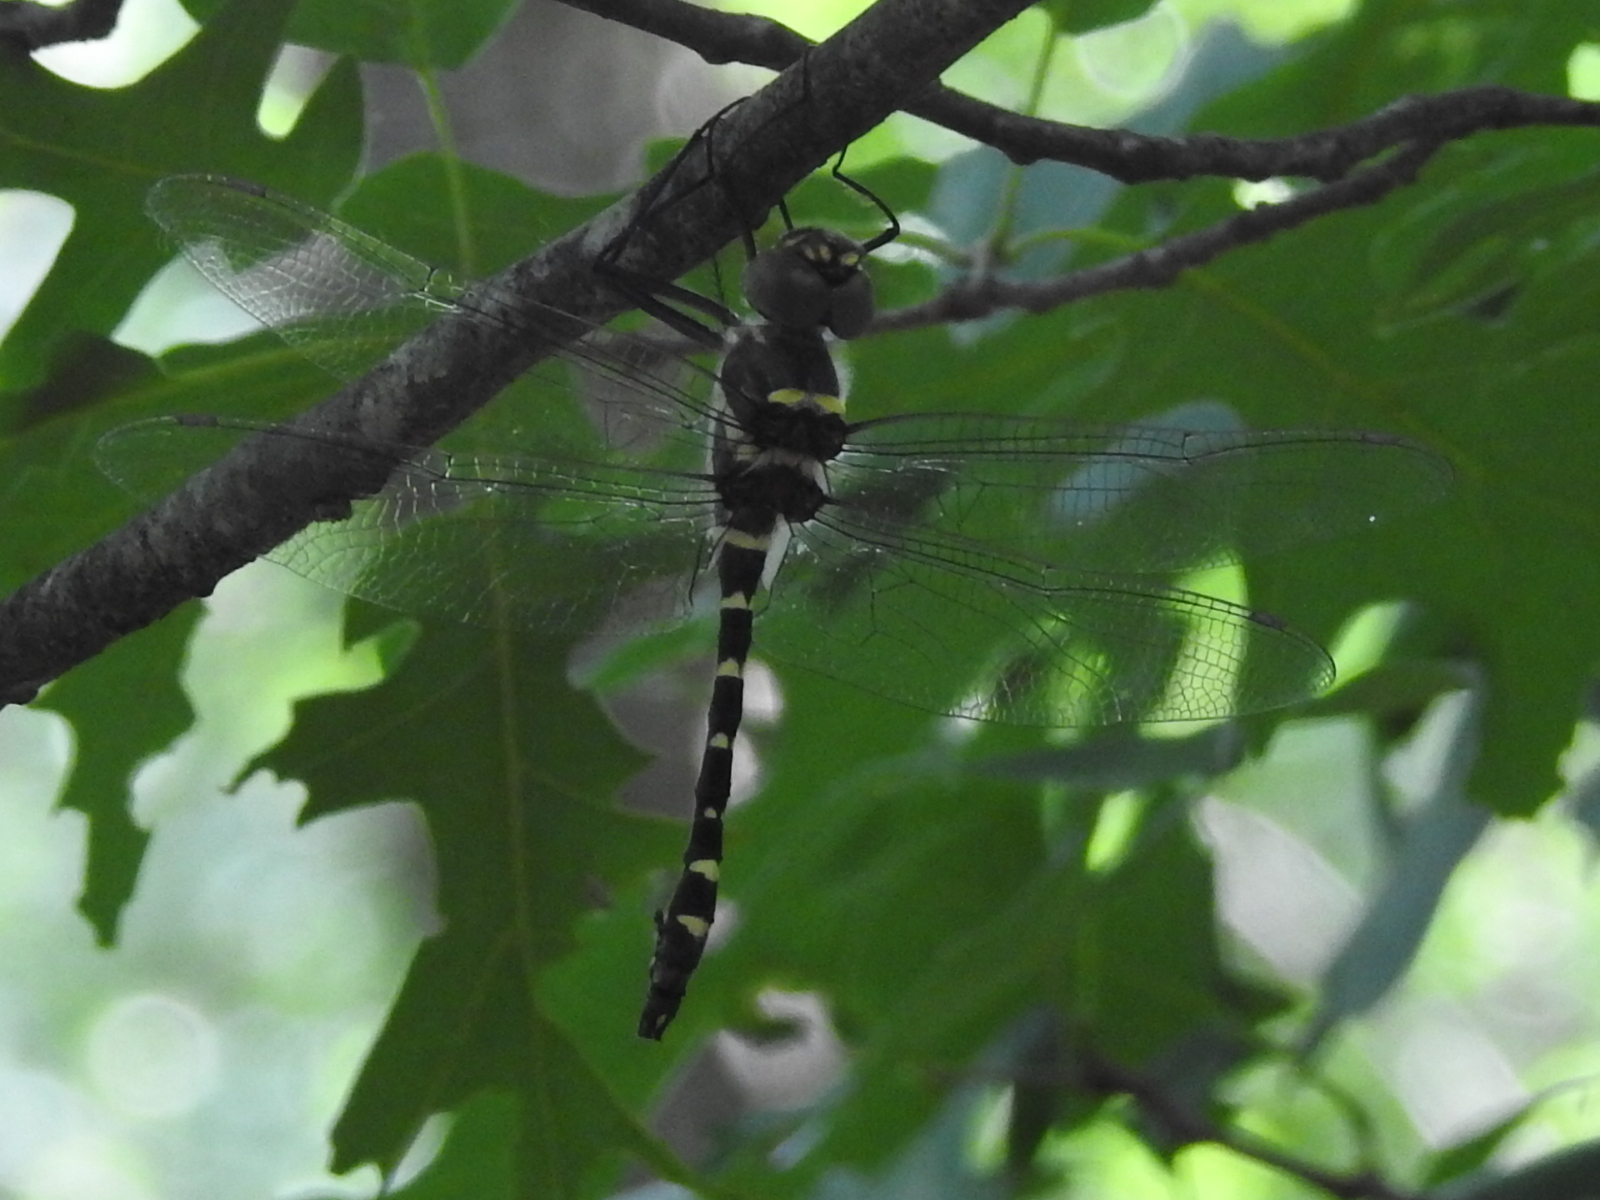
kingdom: Animalia
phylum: Arthropoda
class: Insecta
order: Odonata
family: Macromiidae
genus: Macromia
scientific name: Macromia illinoiensis
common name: Swift river cruiser
